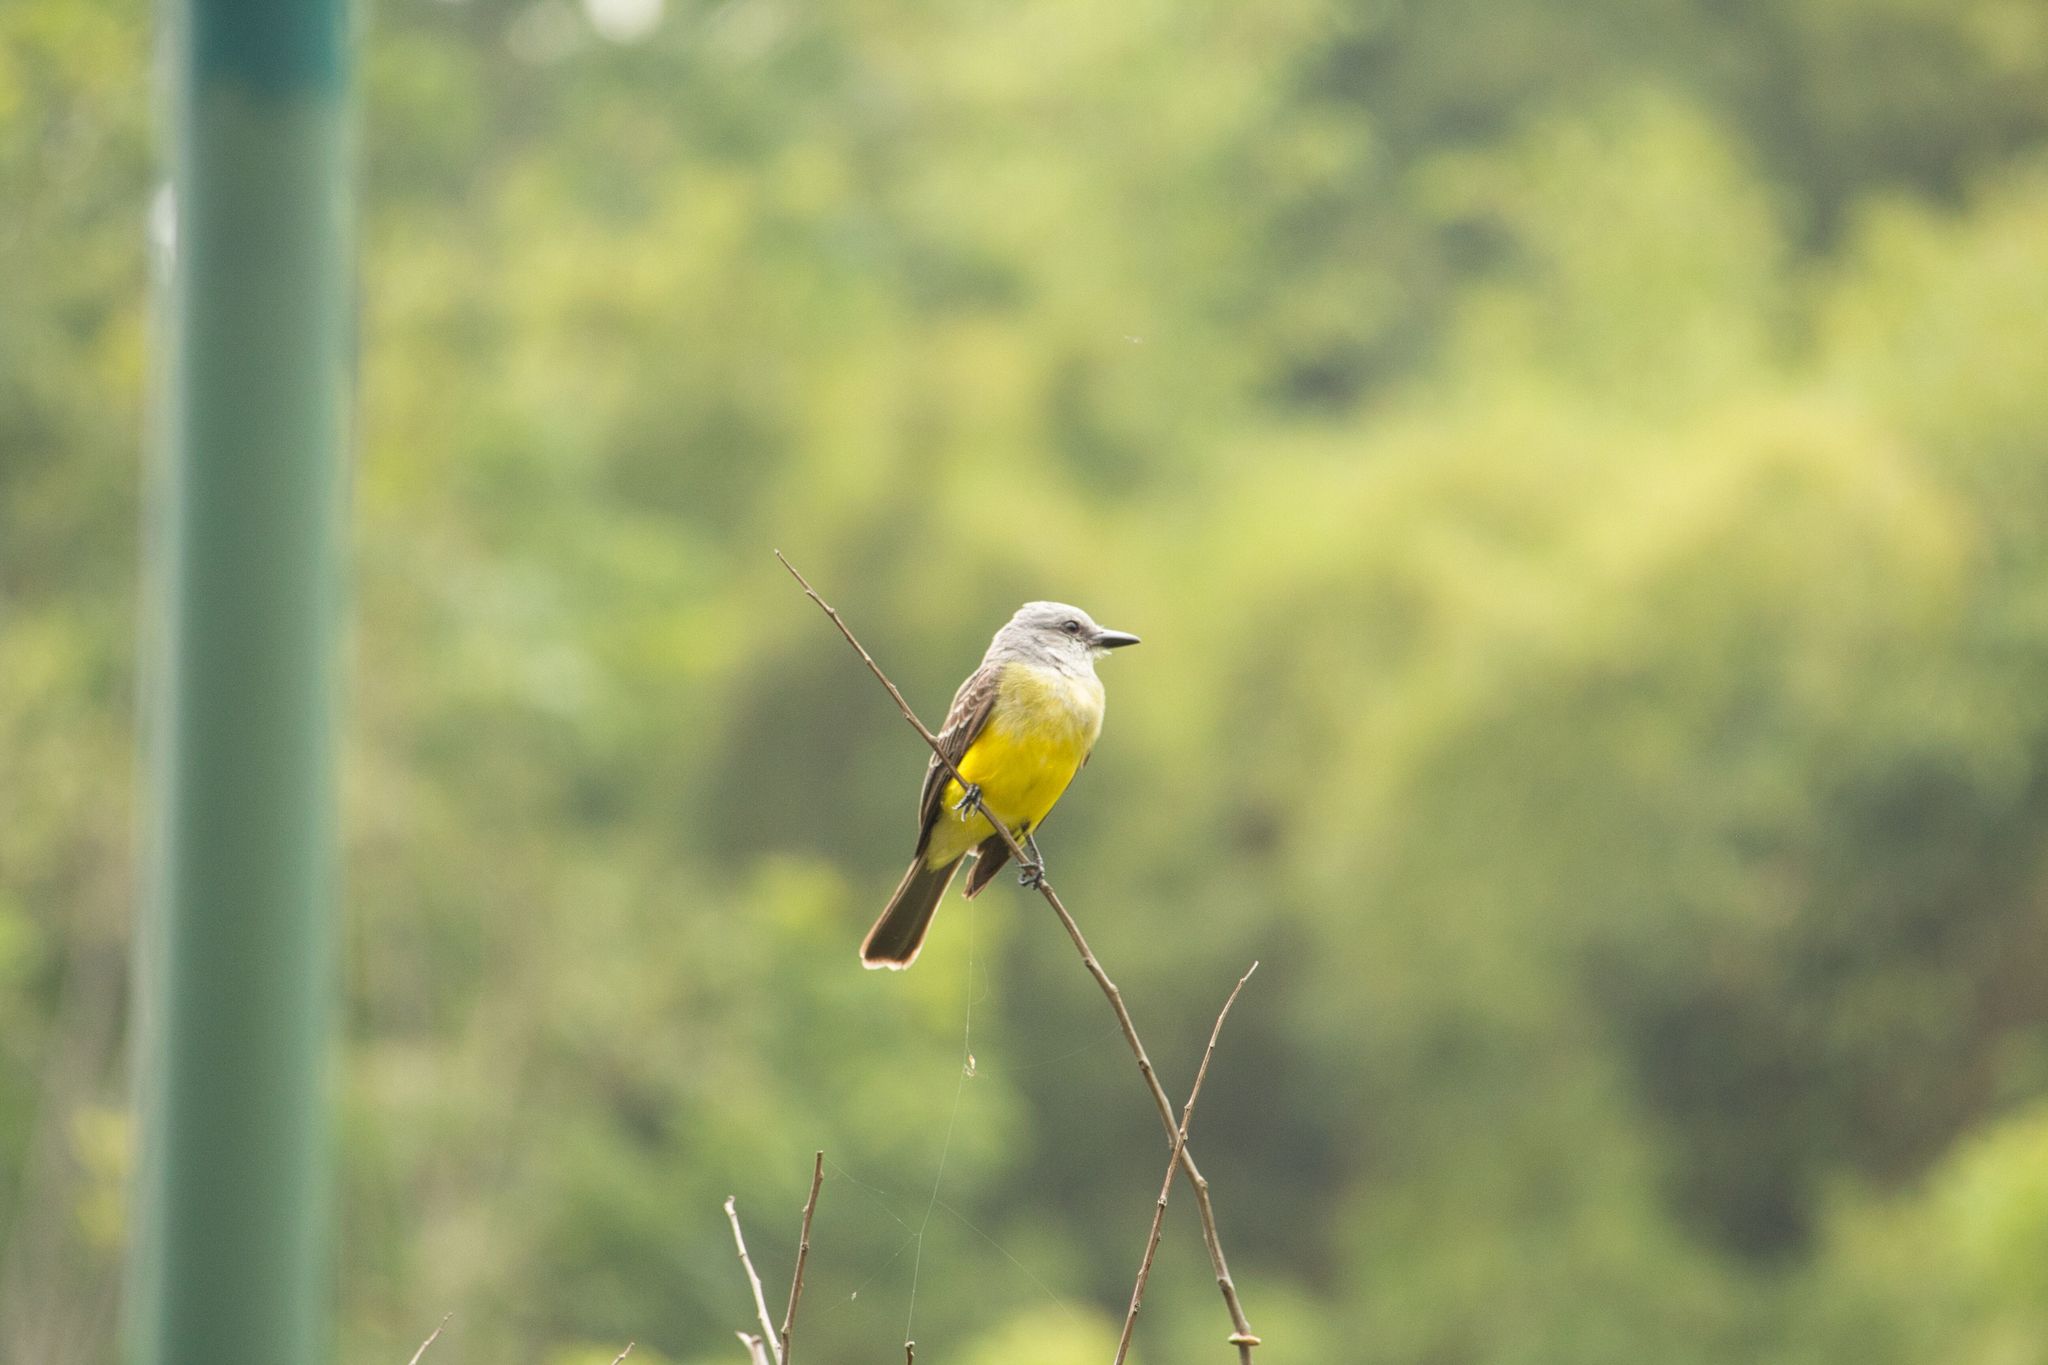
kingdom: Animalia
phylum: Chordata
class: Aves
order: Passeriformes
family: Tyrannidae
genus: Tyrannus
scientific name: Tyrannus melancholicus
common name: Tropical kingbird
